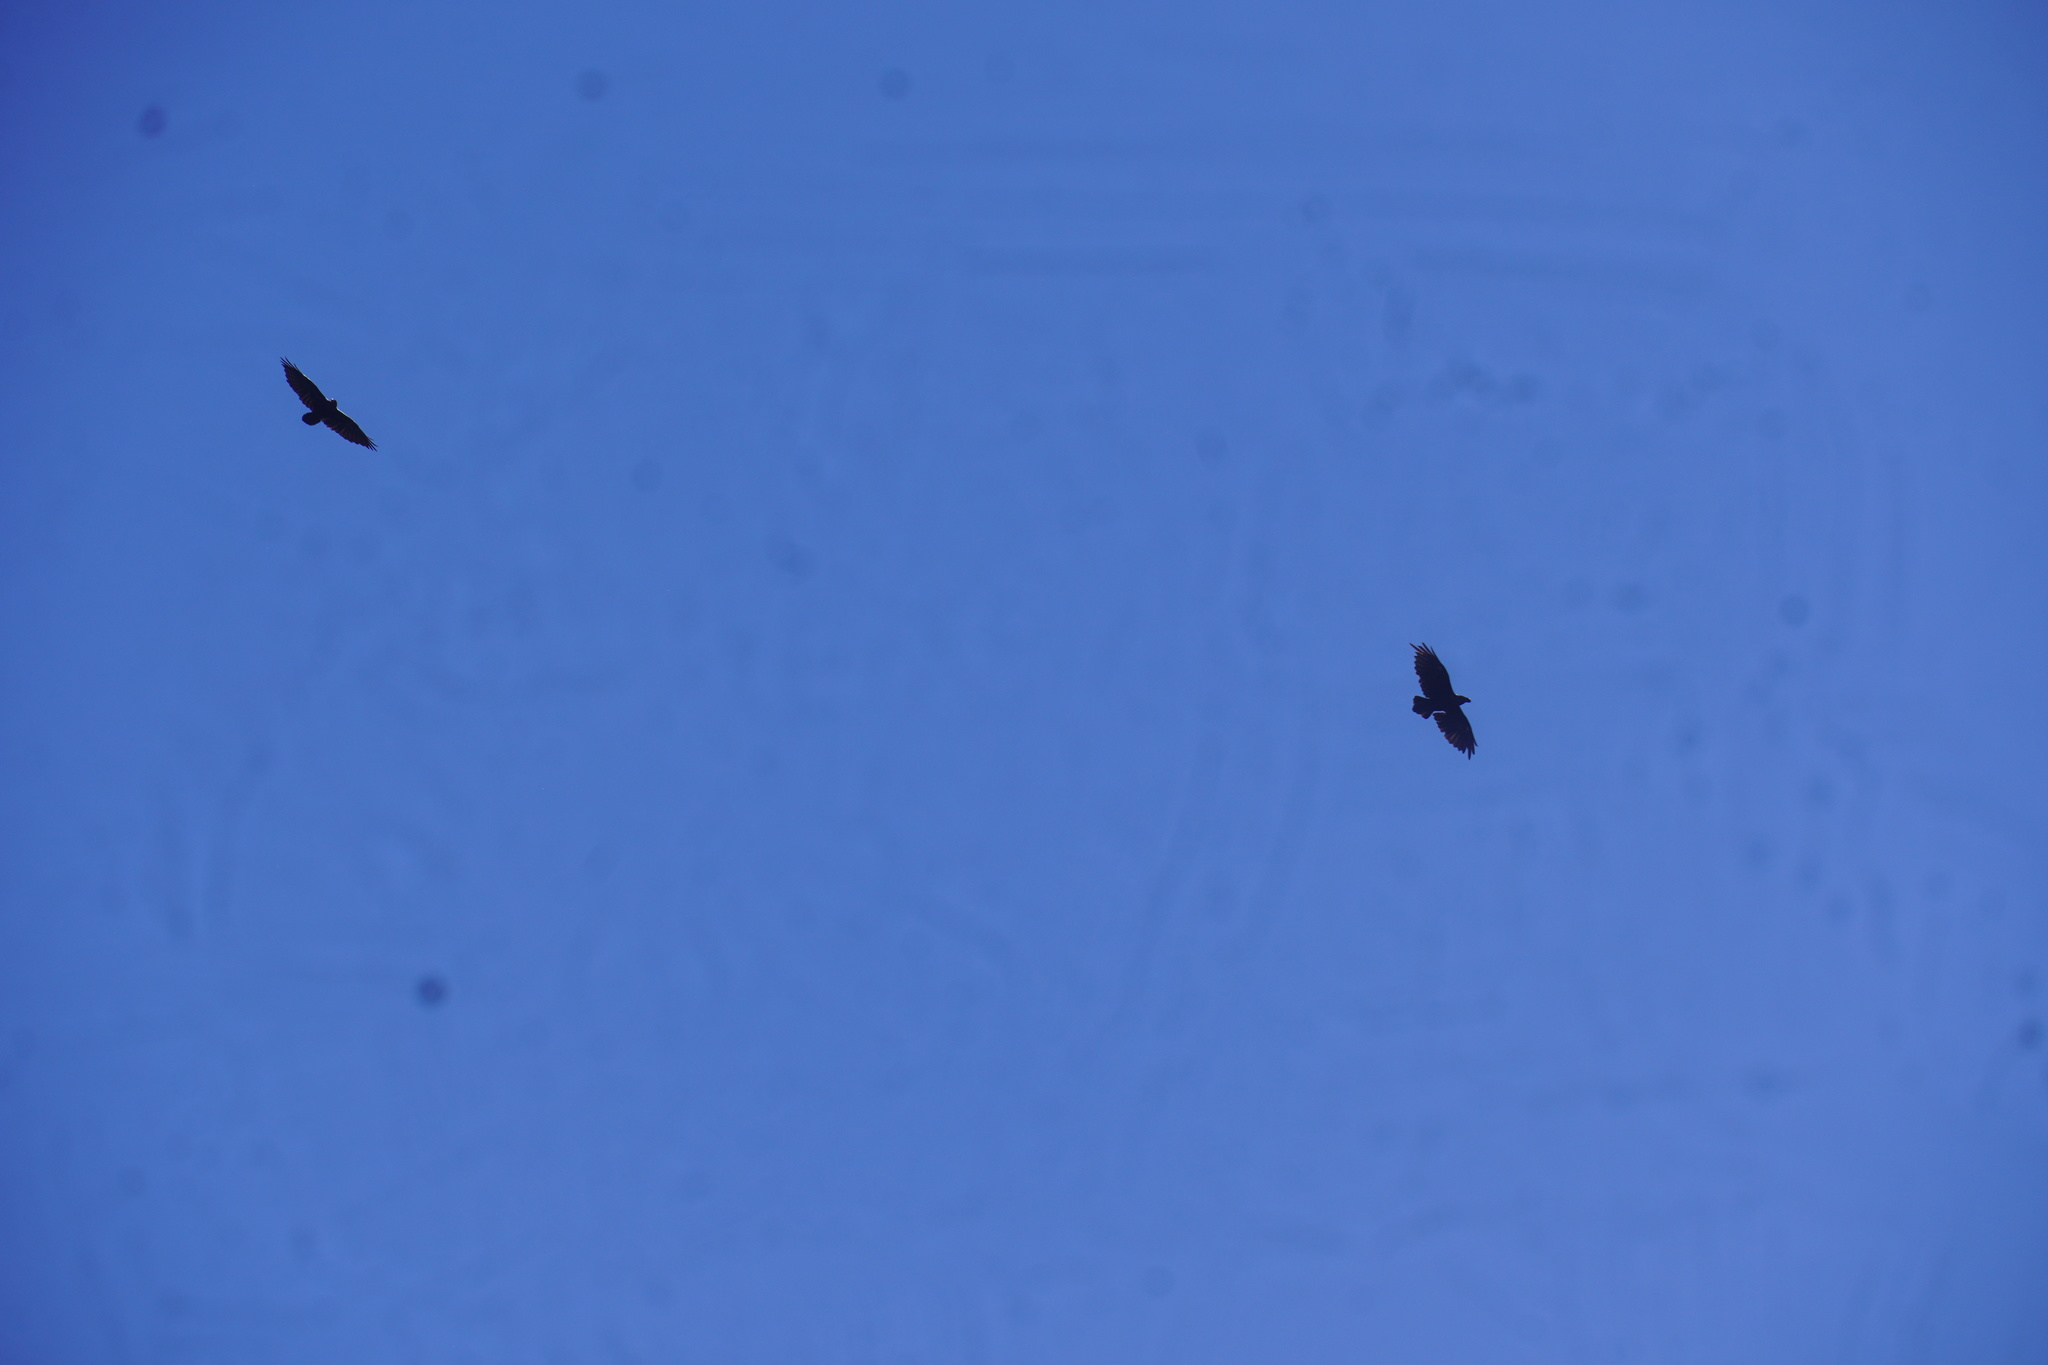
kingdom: Animalia
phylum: Chordata
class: Aves
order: Passeriformes
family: Corvidae
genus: Corvus
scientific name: Corvus albicollis
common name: White-necked raven
